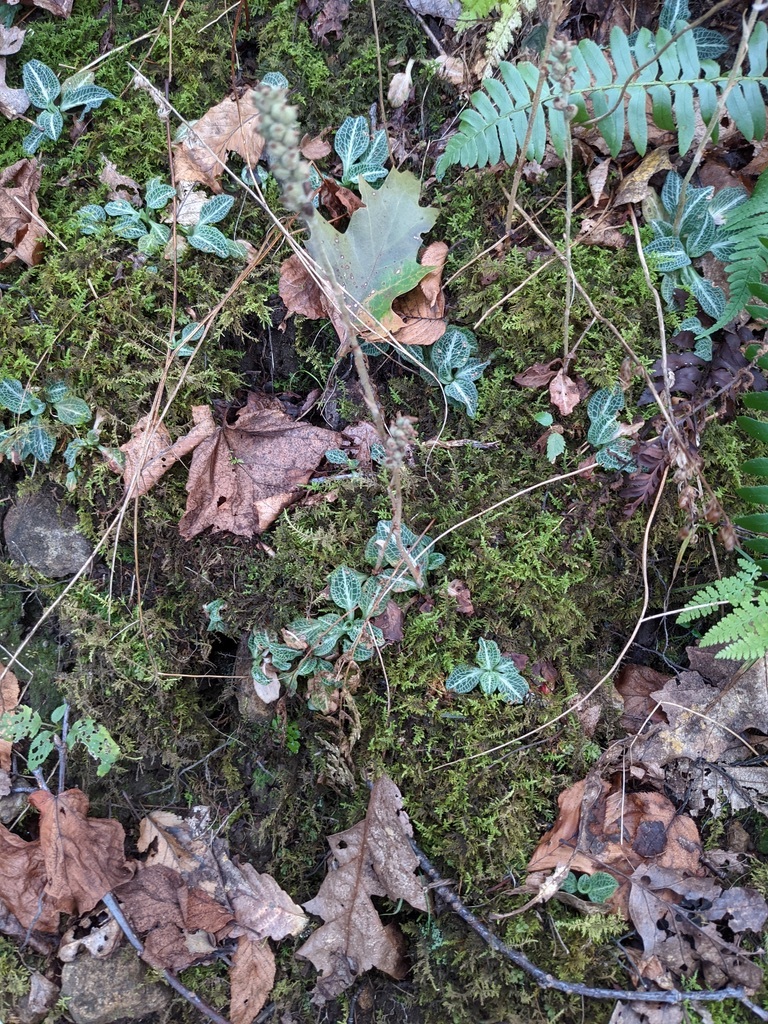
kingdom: Plantae
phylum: Tracheophyta
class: Liliopsida
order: Asparagales
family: Orchidaceae
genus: Goodyera
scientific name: Goodyera pubescens
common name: Downy rattlesnake-plantain
